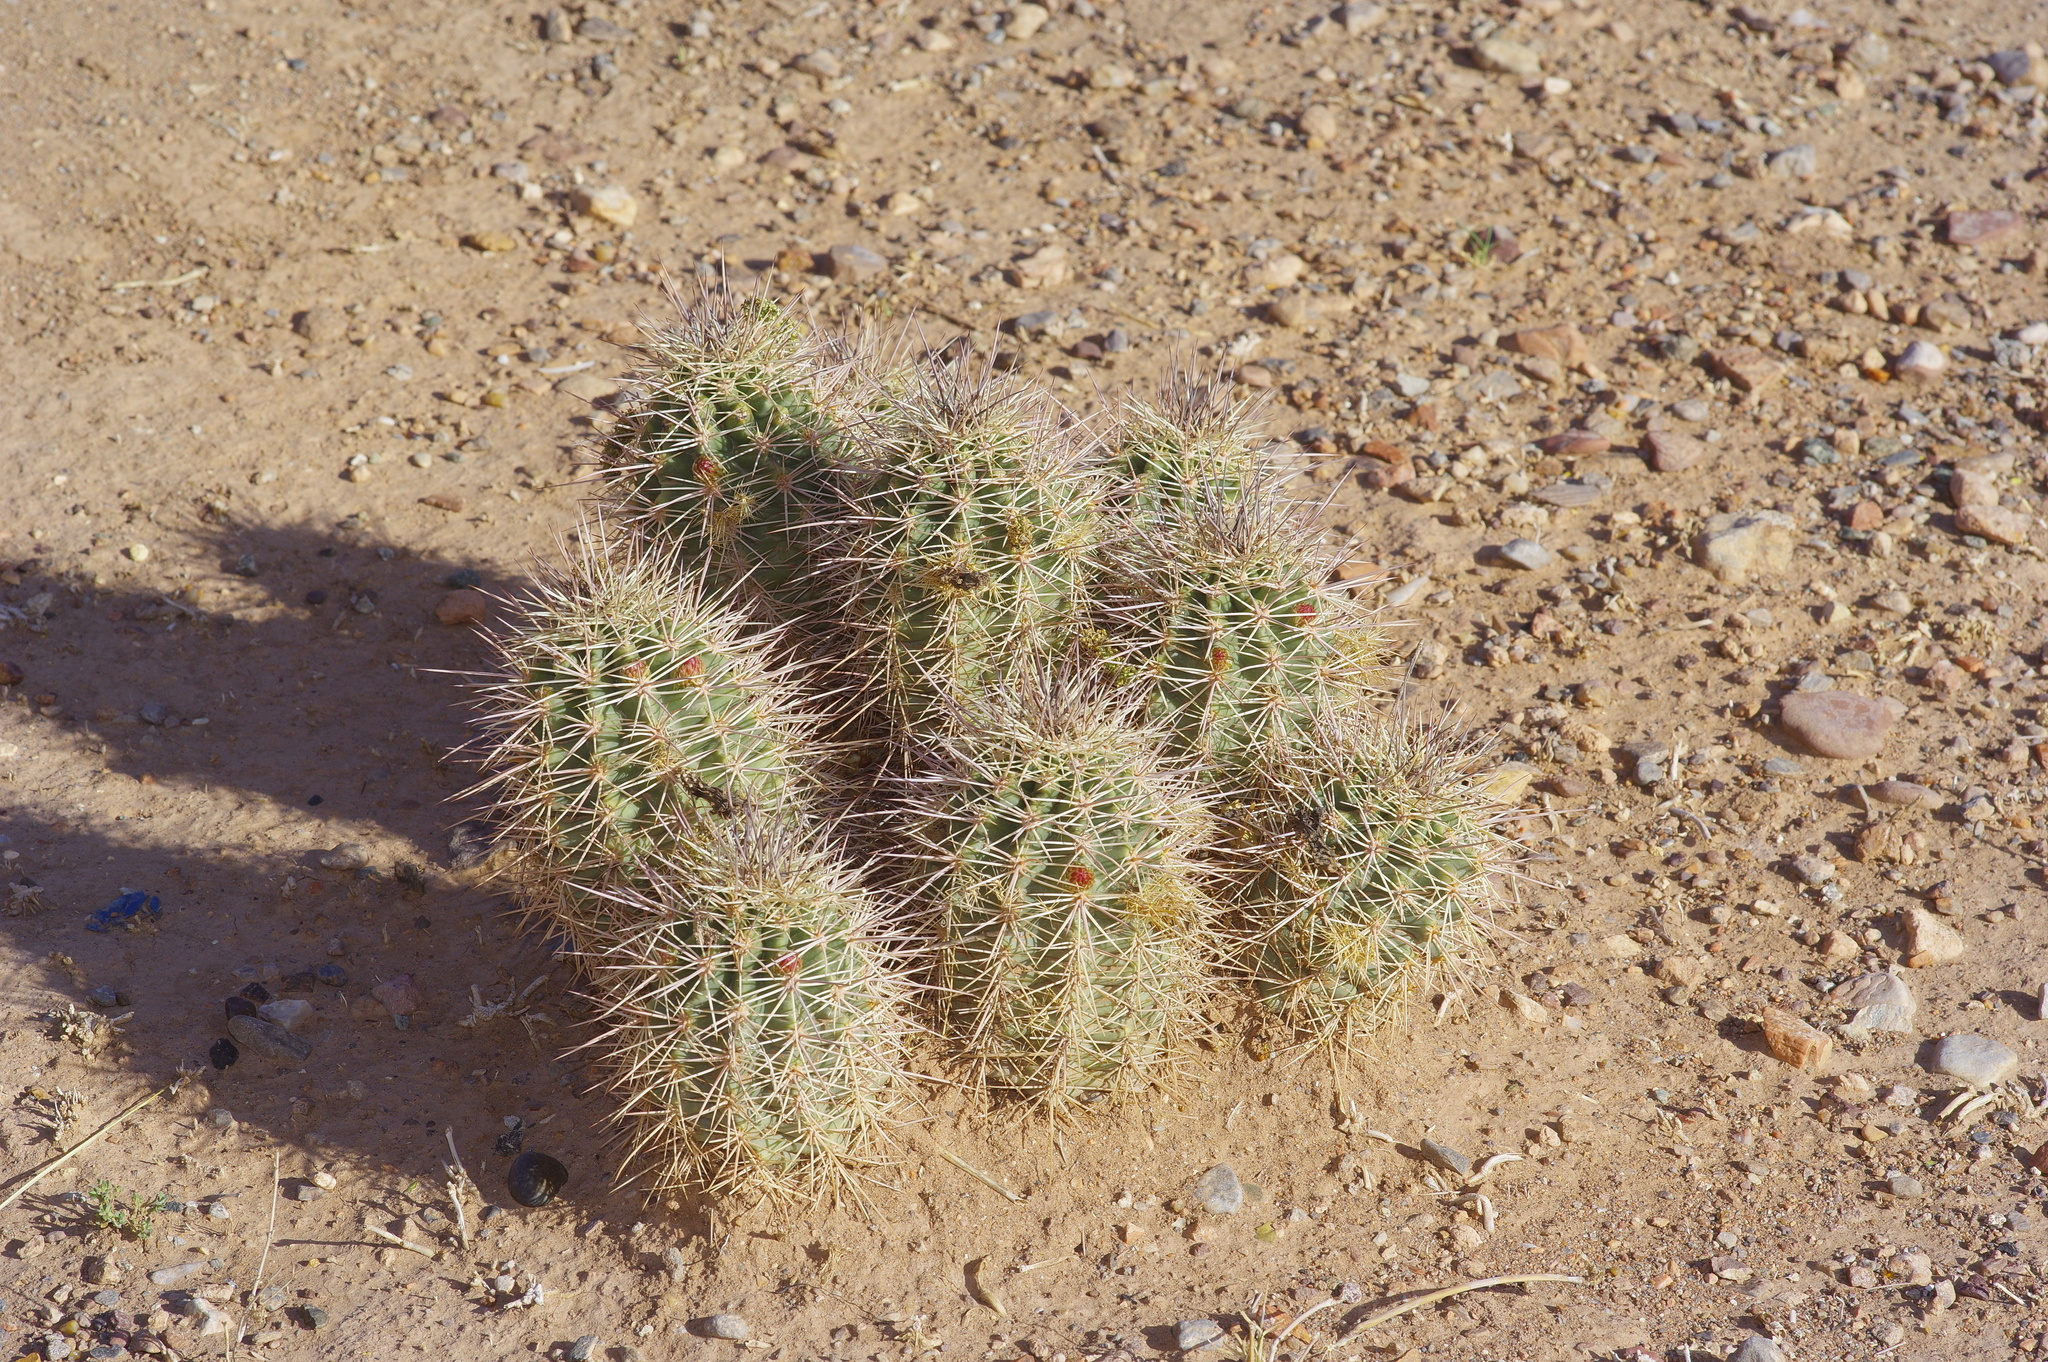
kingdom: Plantae
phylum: Tracheophyta
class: Magnoliopsida
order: Caryophyllales
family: Cactaceae
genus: Echinocereus
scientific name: Echinocereus coccineus
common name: Scarlet hedgehog cactus
